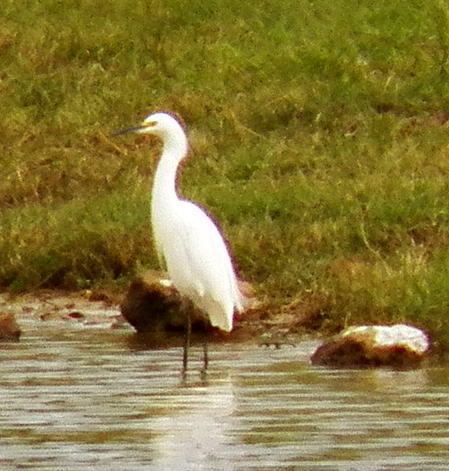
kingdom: Animalia
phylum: Chordata
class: Aves
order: Pelecaniformes
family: Ardeidae
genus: Egretta
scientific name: Egretta thula
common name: Snowy egret
